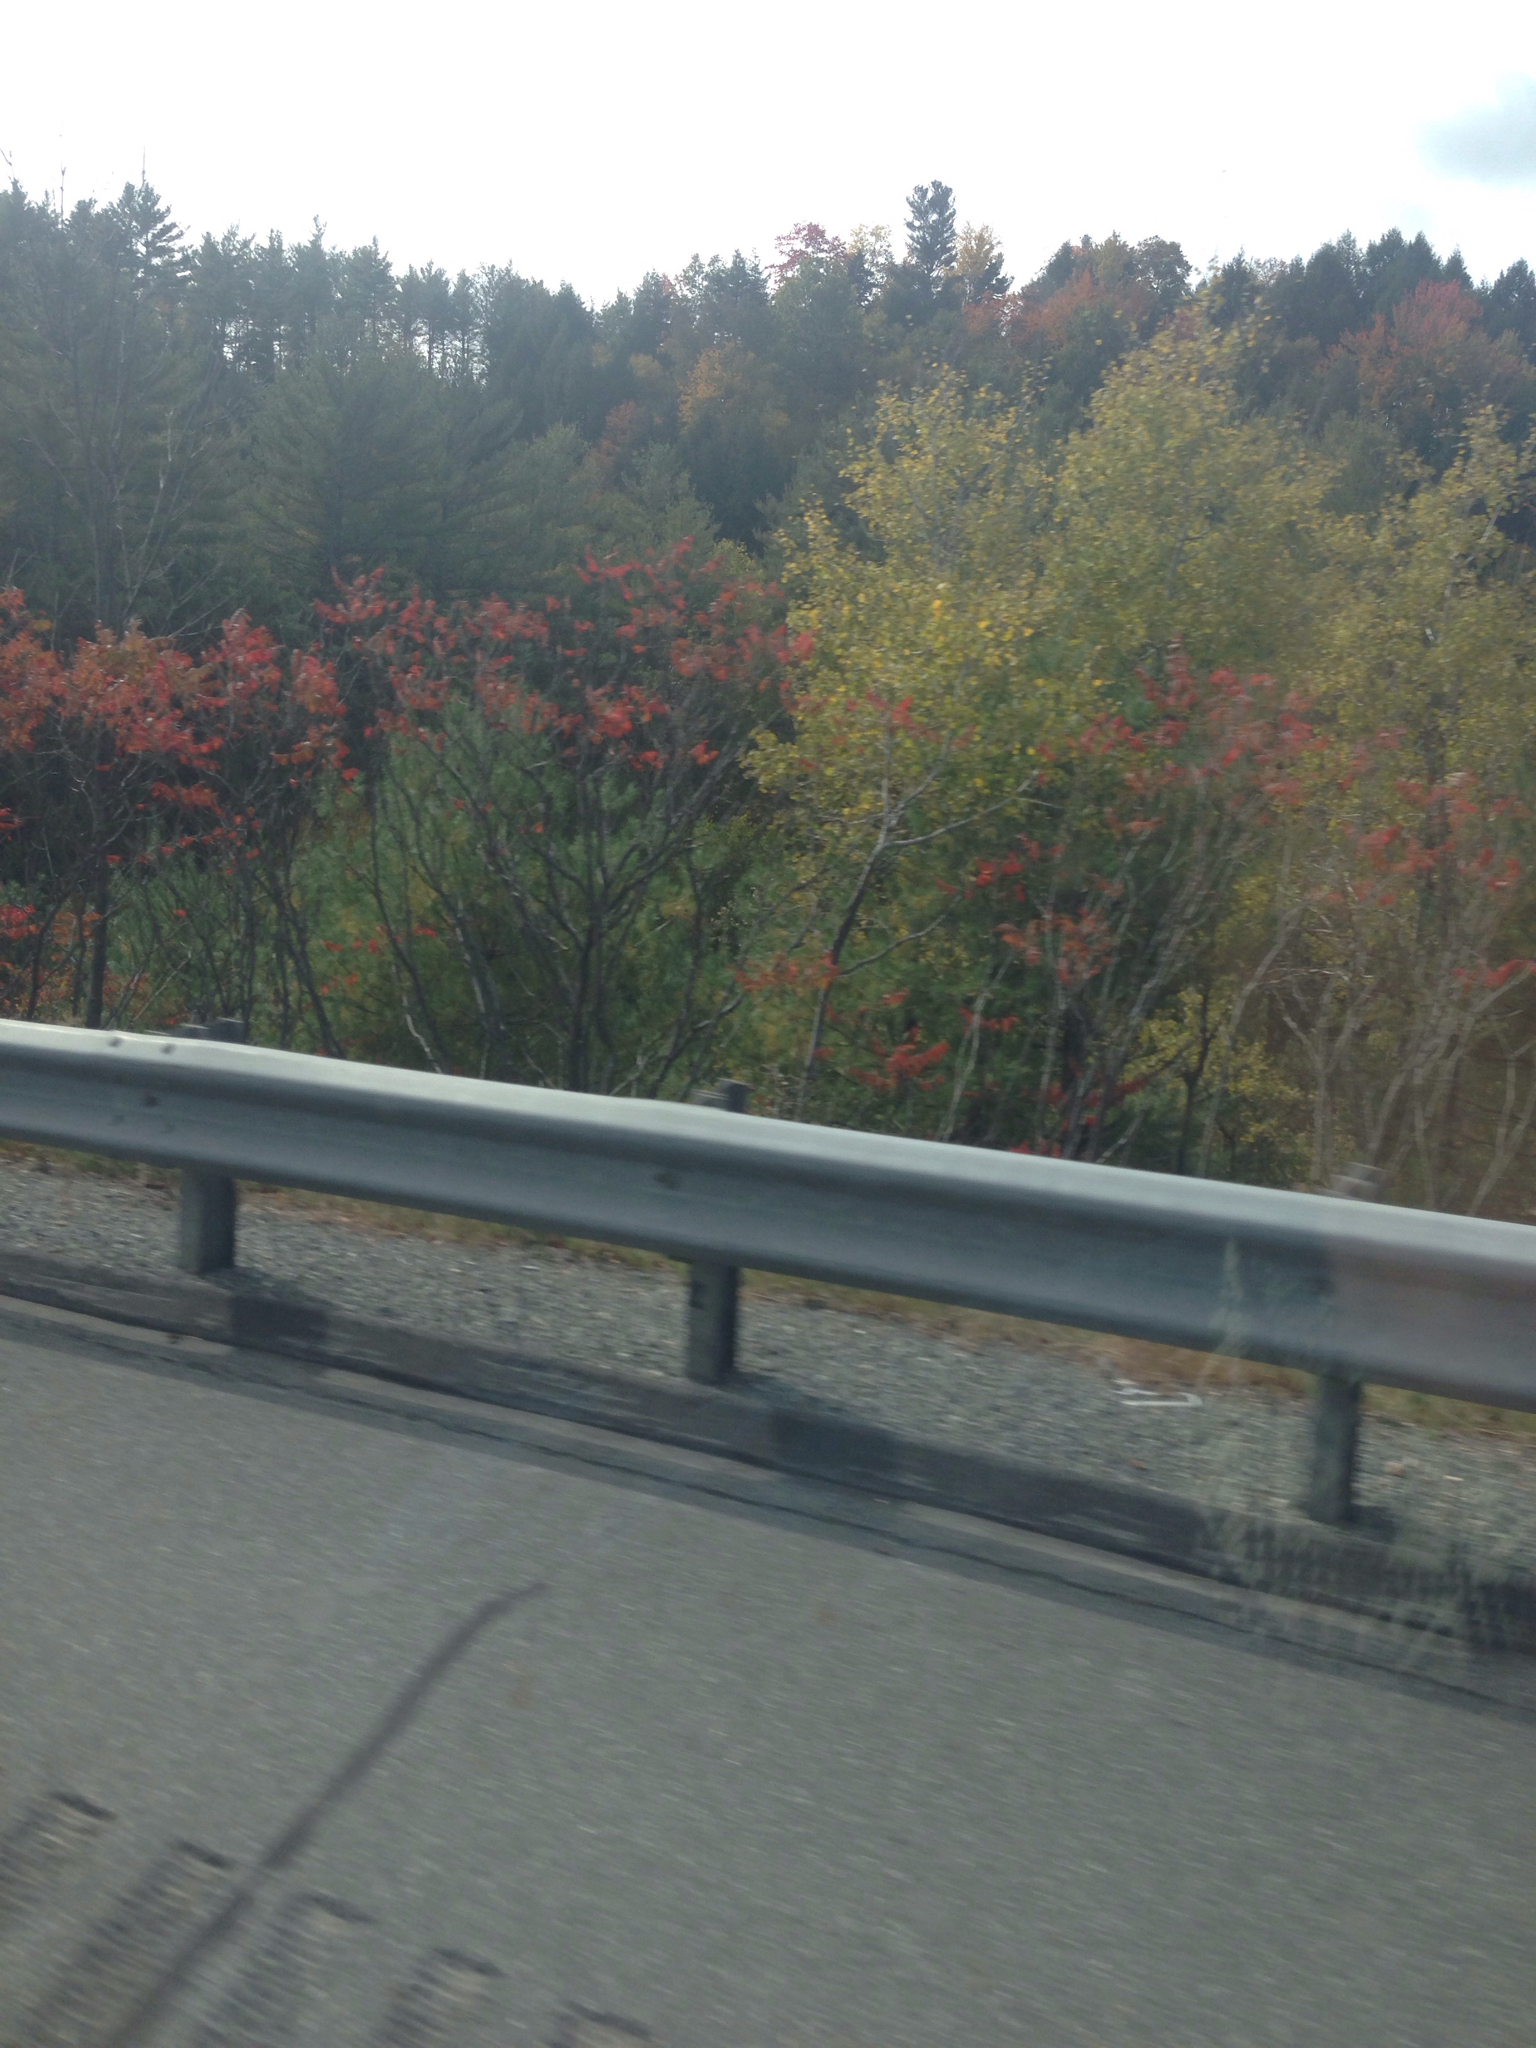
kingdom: Plantae
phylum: Tracheophyta
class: Magnoliopsida
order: Sapindales
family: Anacardiaceae
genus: Rhus
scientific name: Rhus typhina
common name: Staghorn sumac
